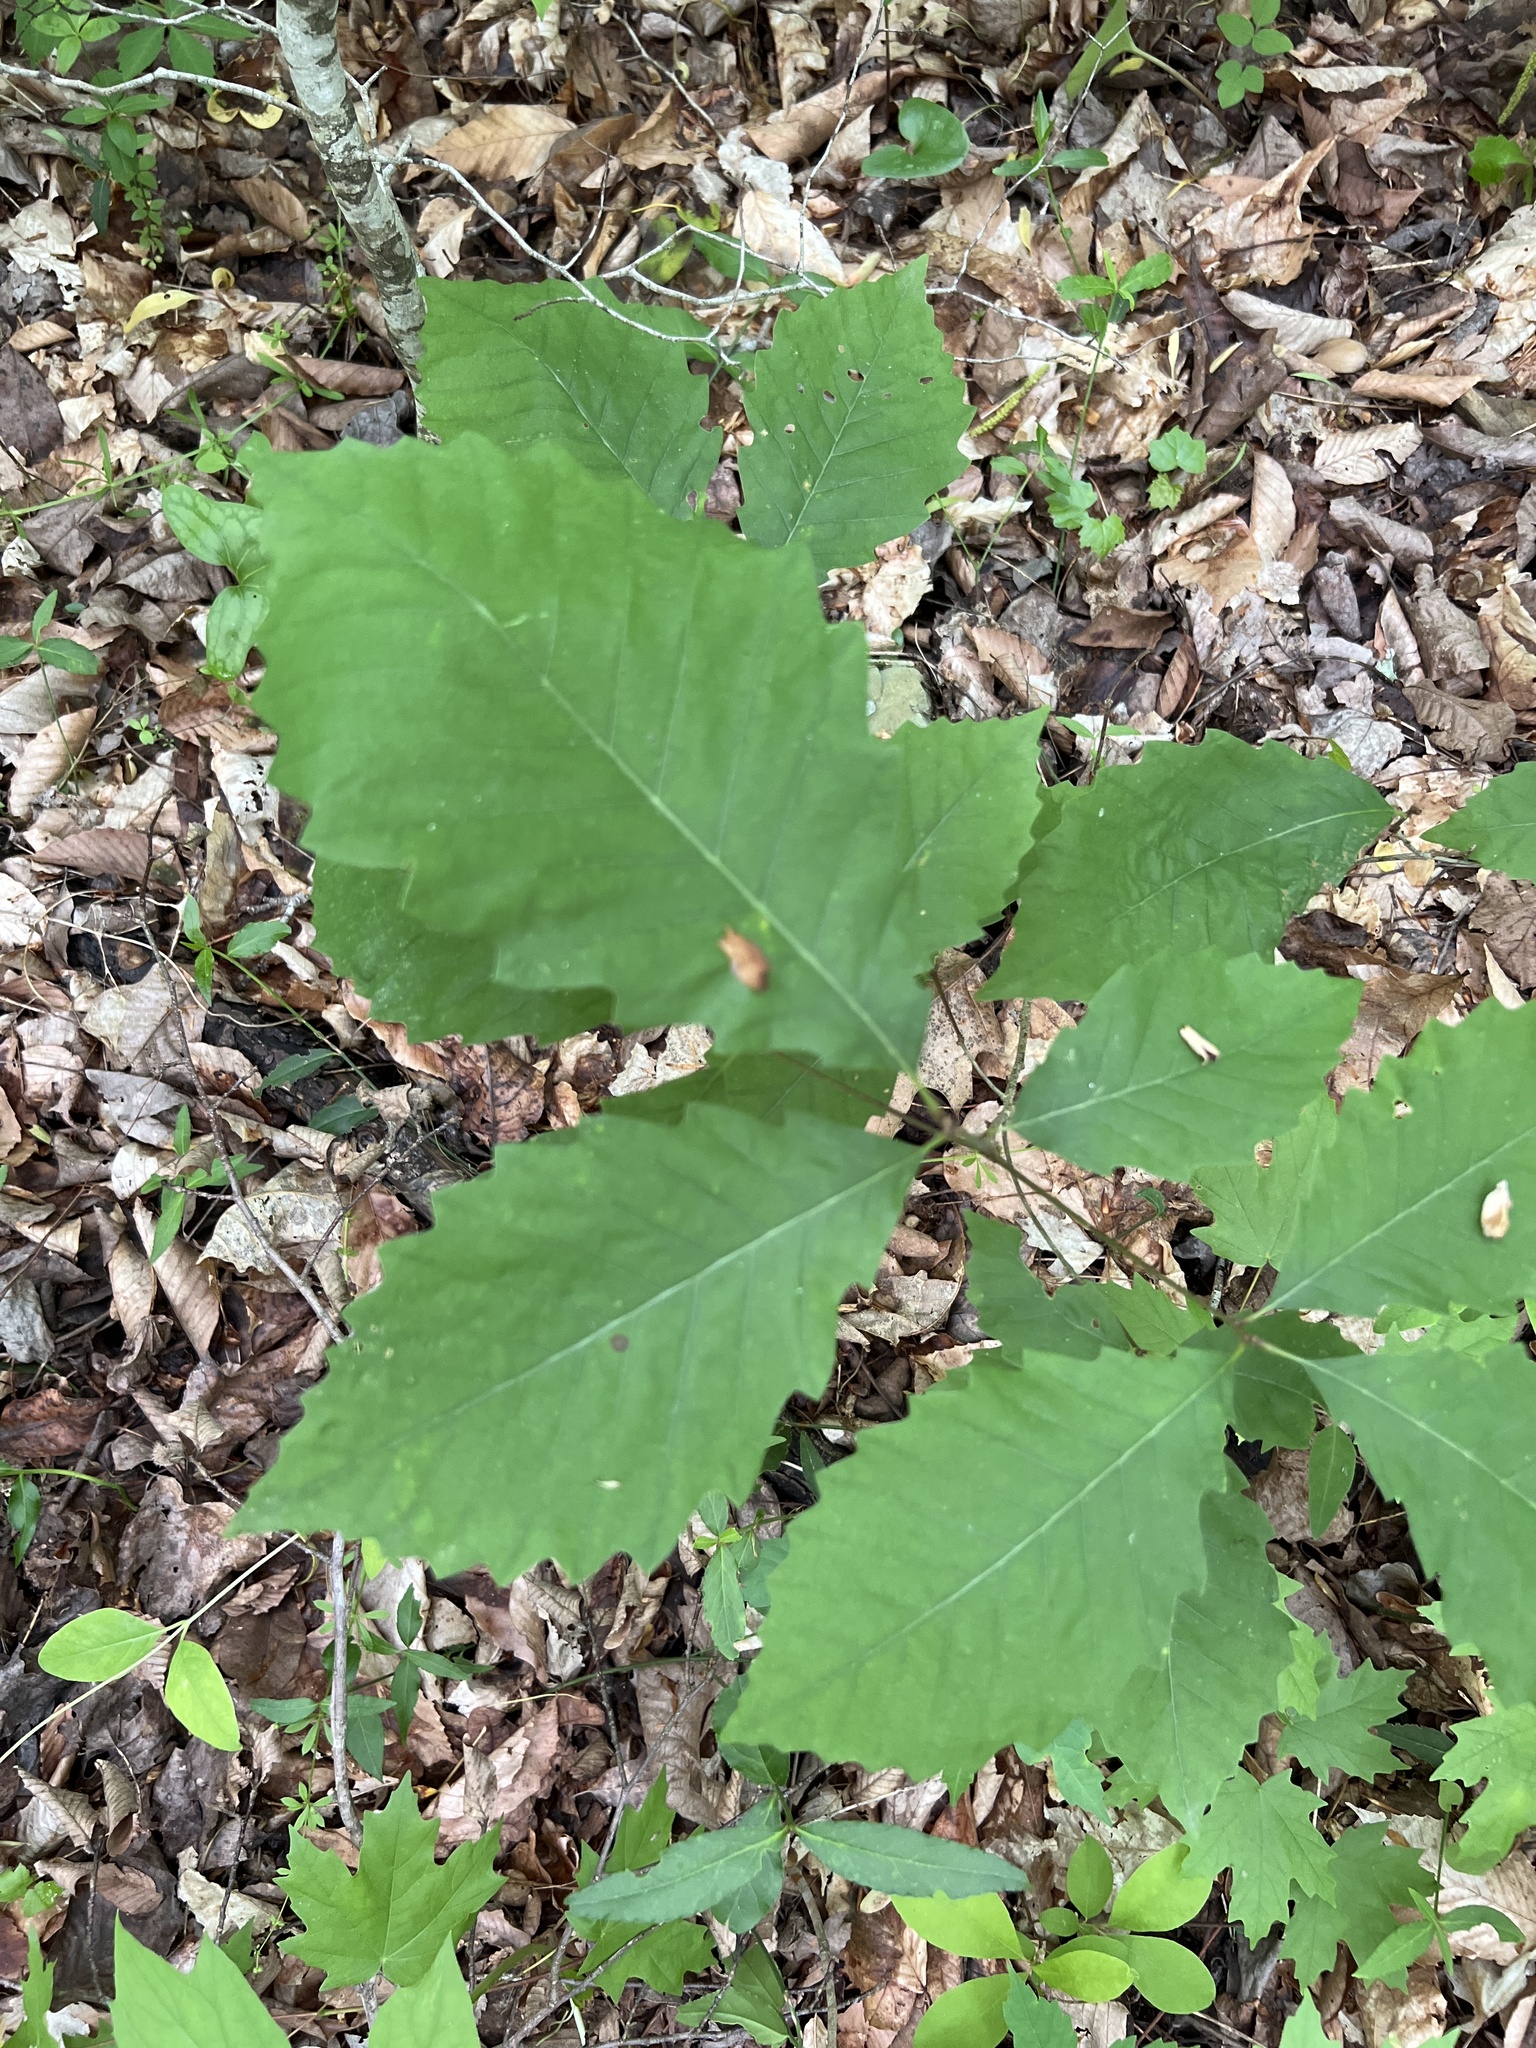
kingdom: Plantae
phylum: Tracheophyta
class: Magnoliopsida
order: Fagales
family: Fagaceae
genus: Quercus
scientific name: Quercus michauxii
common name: Swamp chestnut oak
